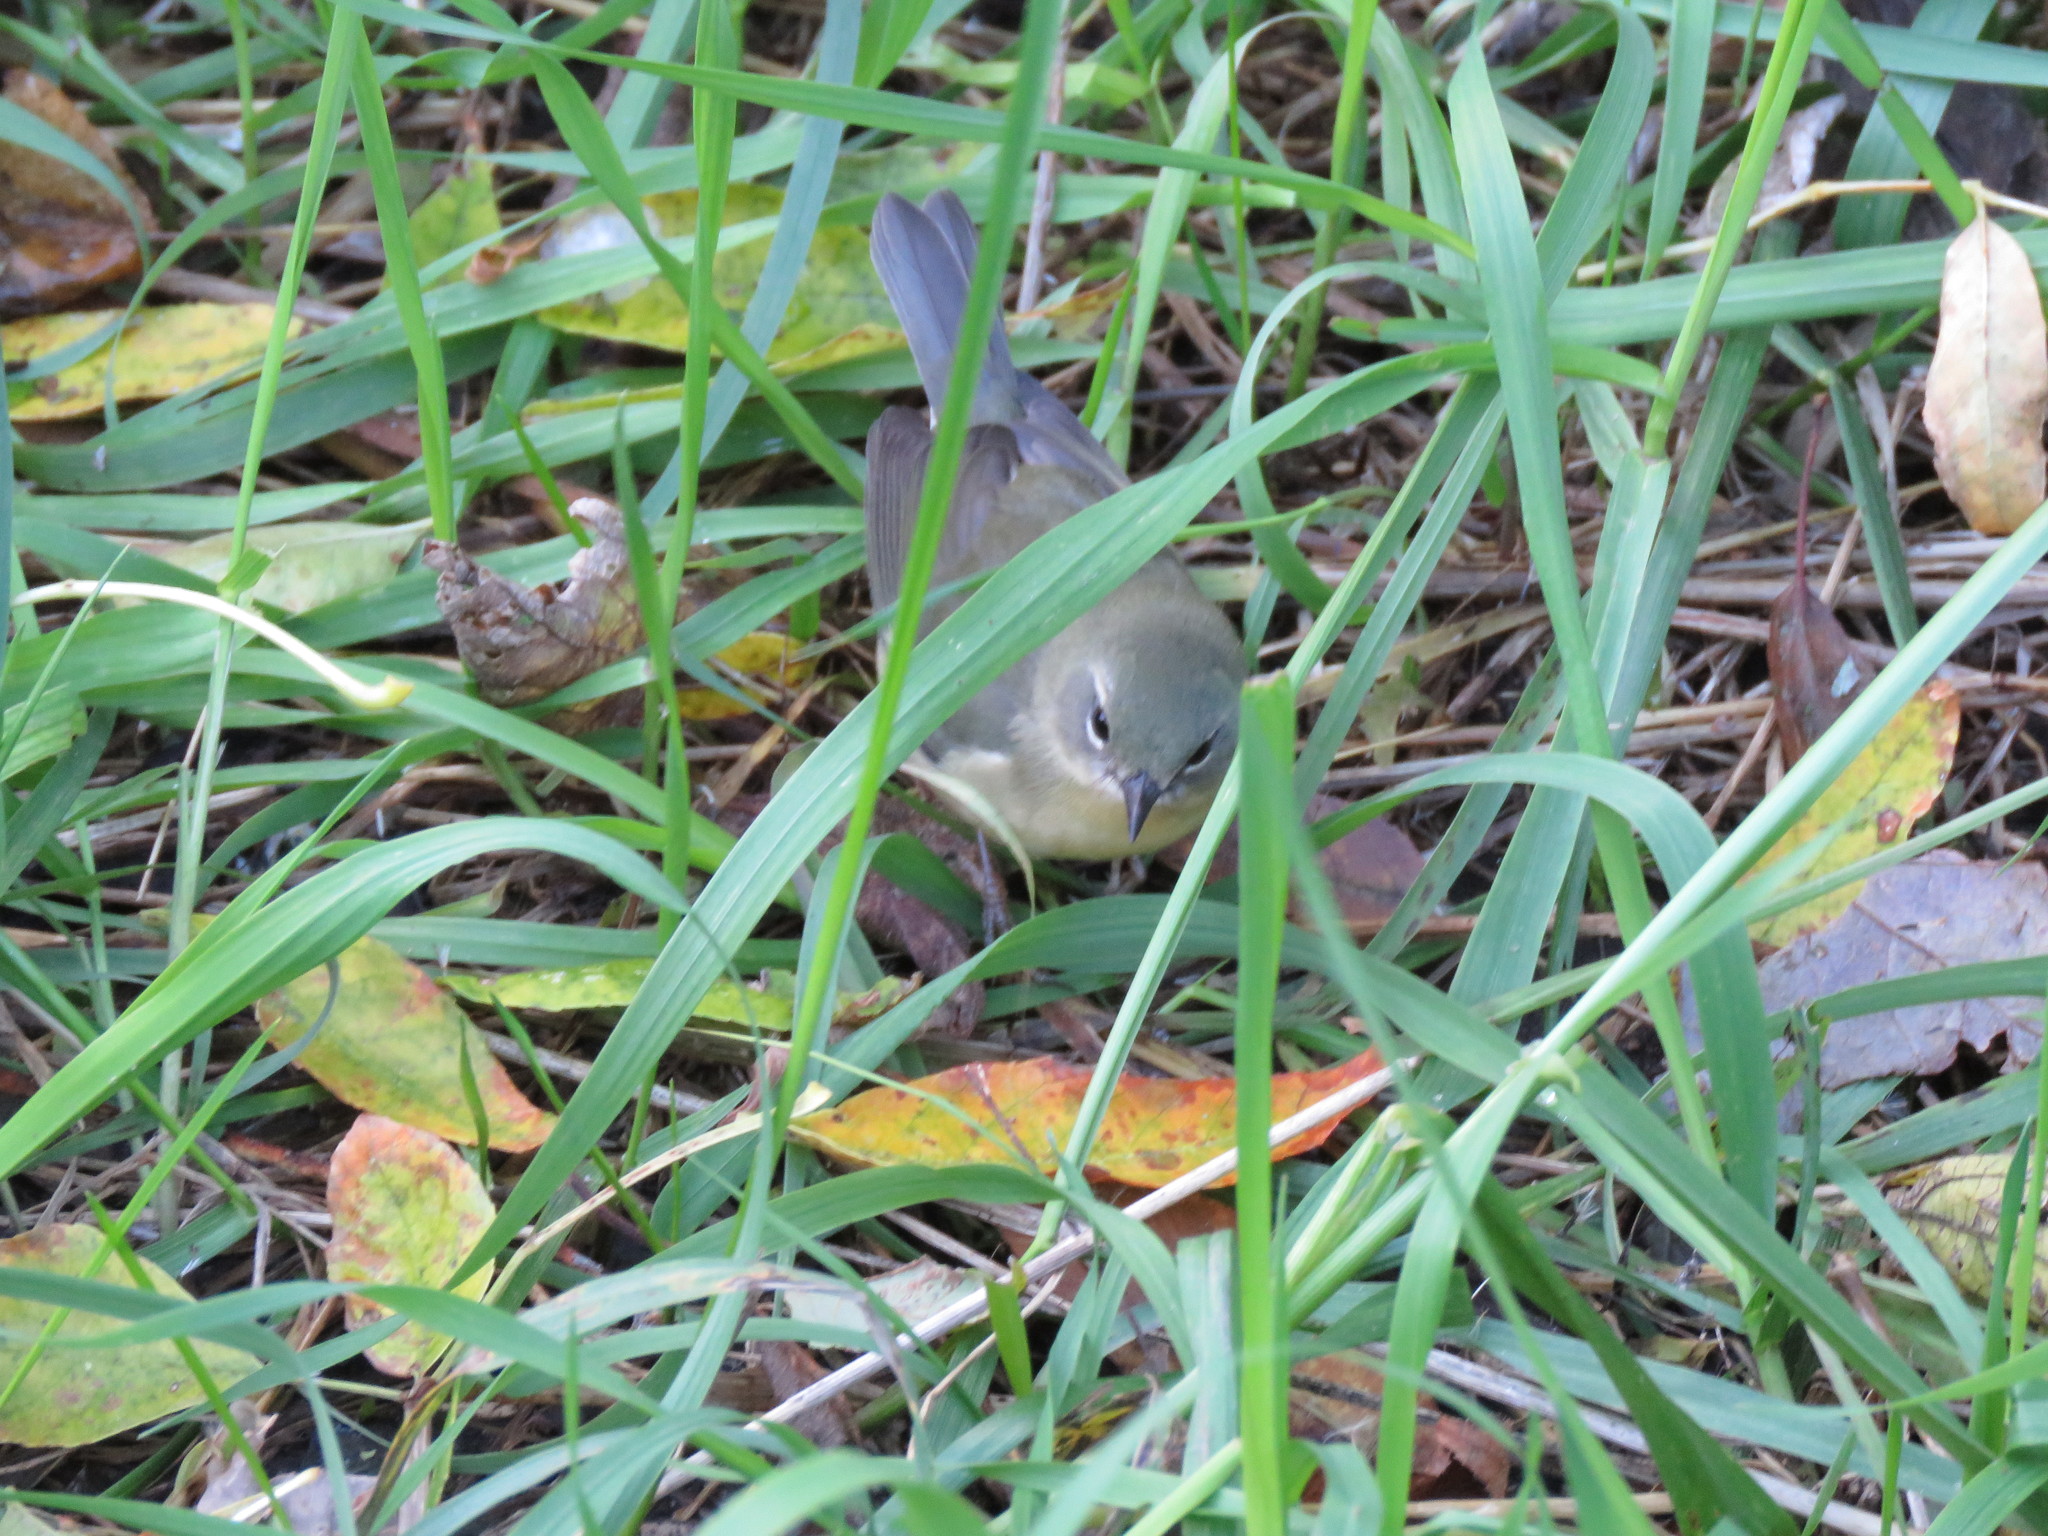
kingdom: Animalia
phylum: Chordata
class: Aves
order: Passeriformes
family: Parulidae
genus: Setophaga
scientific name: Setophaga caerulescens
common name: Black-throated blue warbler
